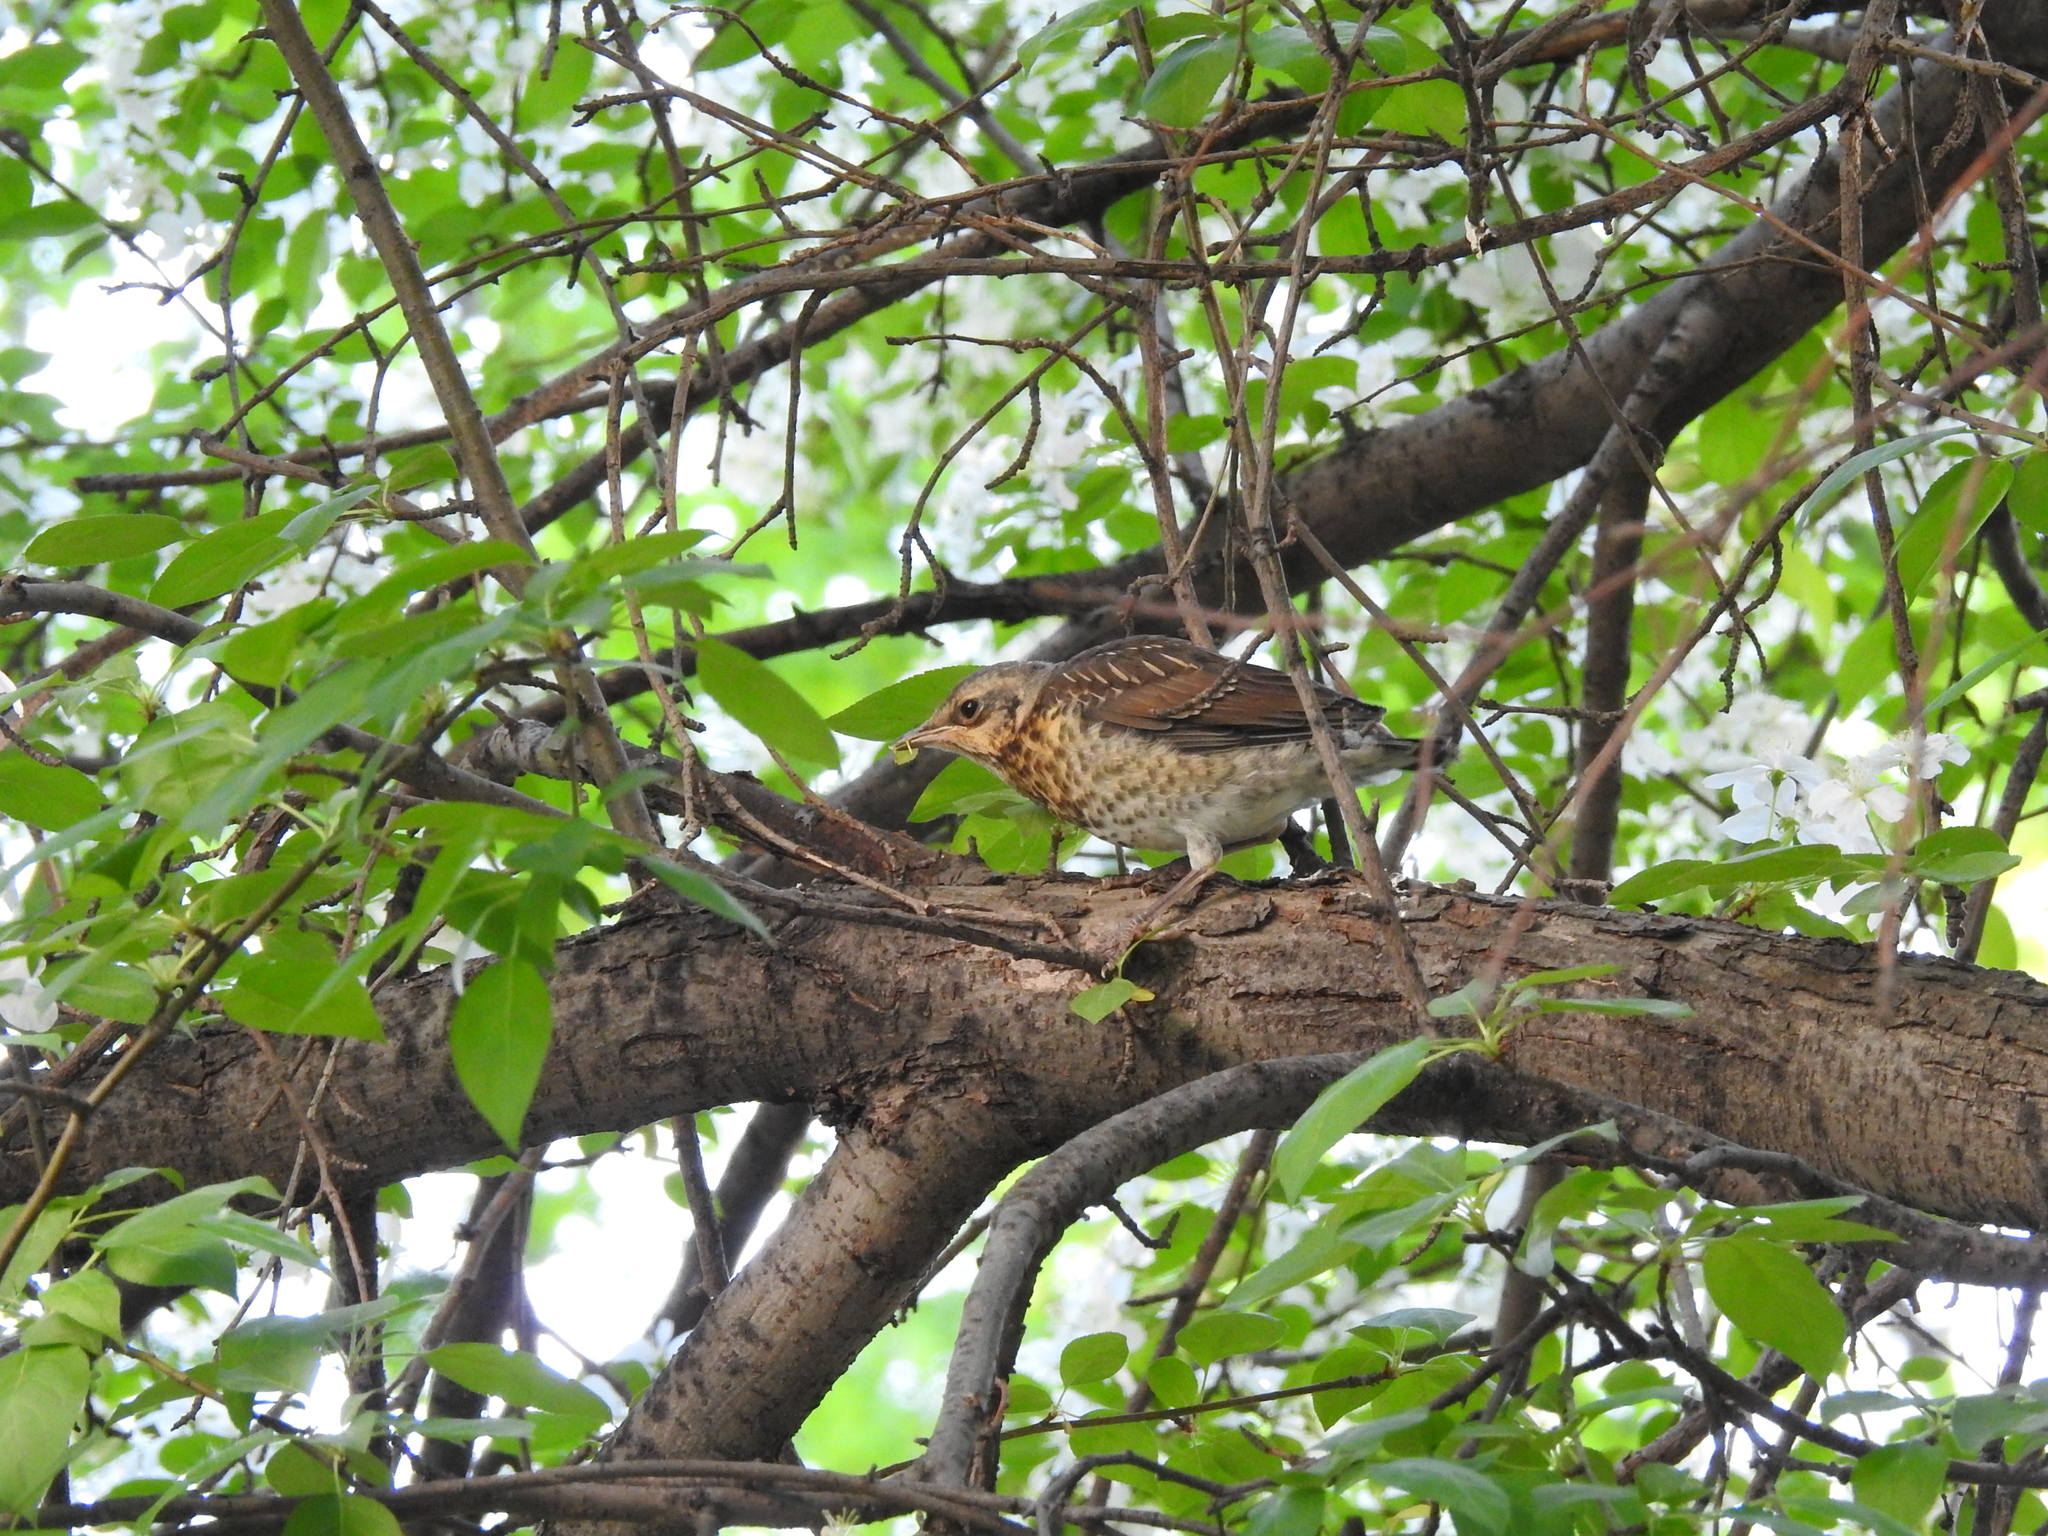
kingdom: Animalia
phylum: Chordata
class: Aves
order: Passeriformes
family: Turdidae
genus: Turdus
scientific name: Turdus pilaris
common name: Fieldfare
